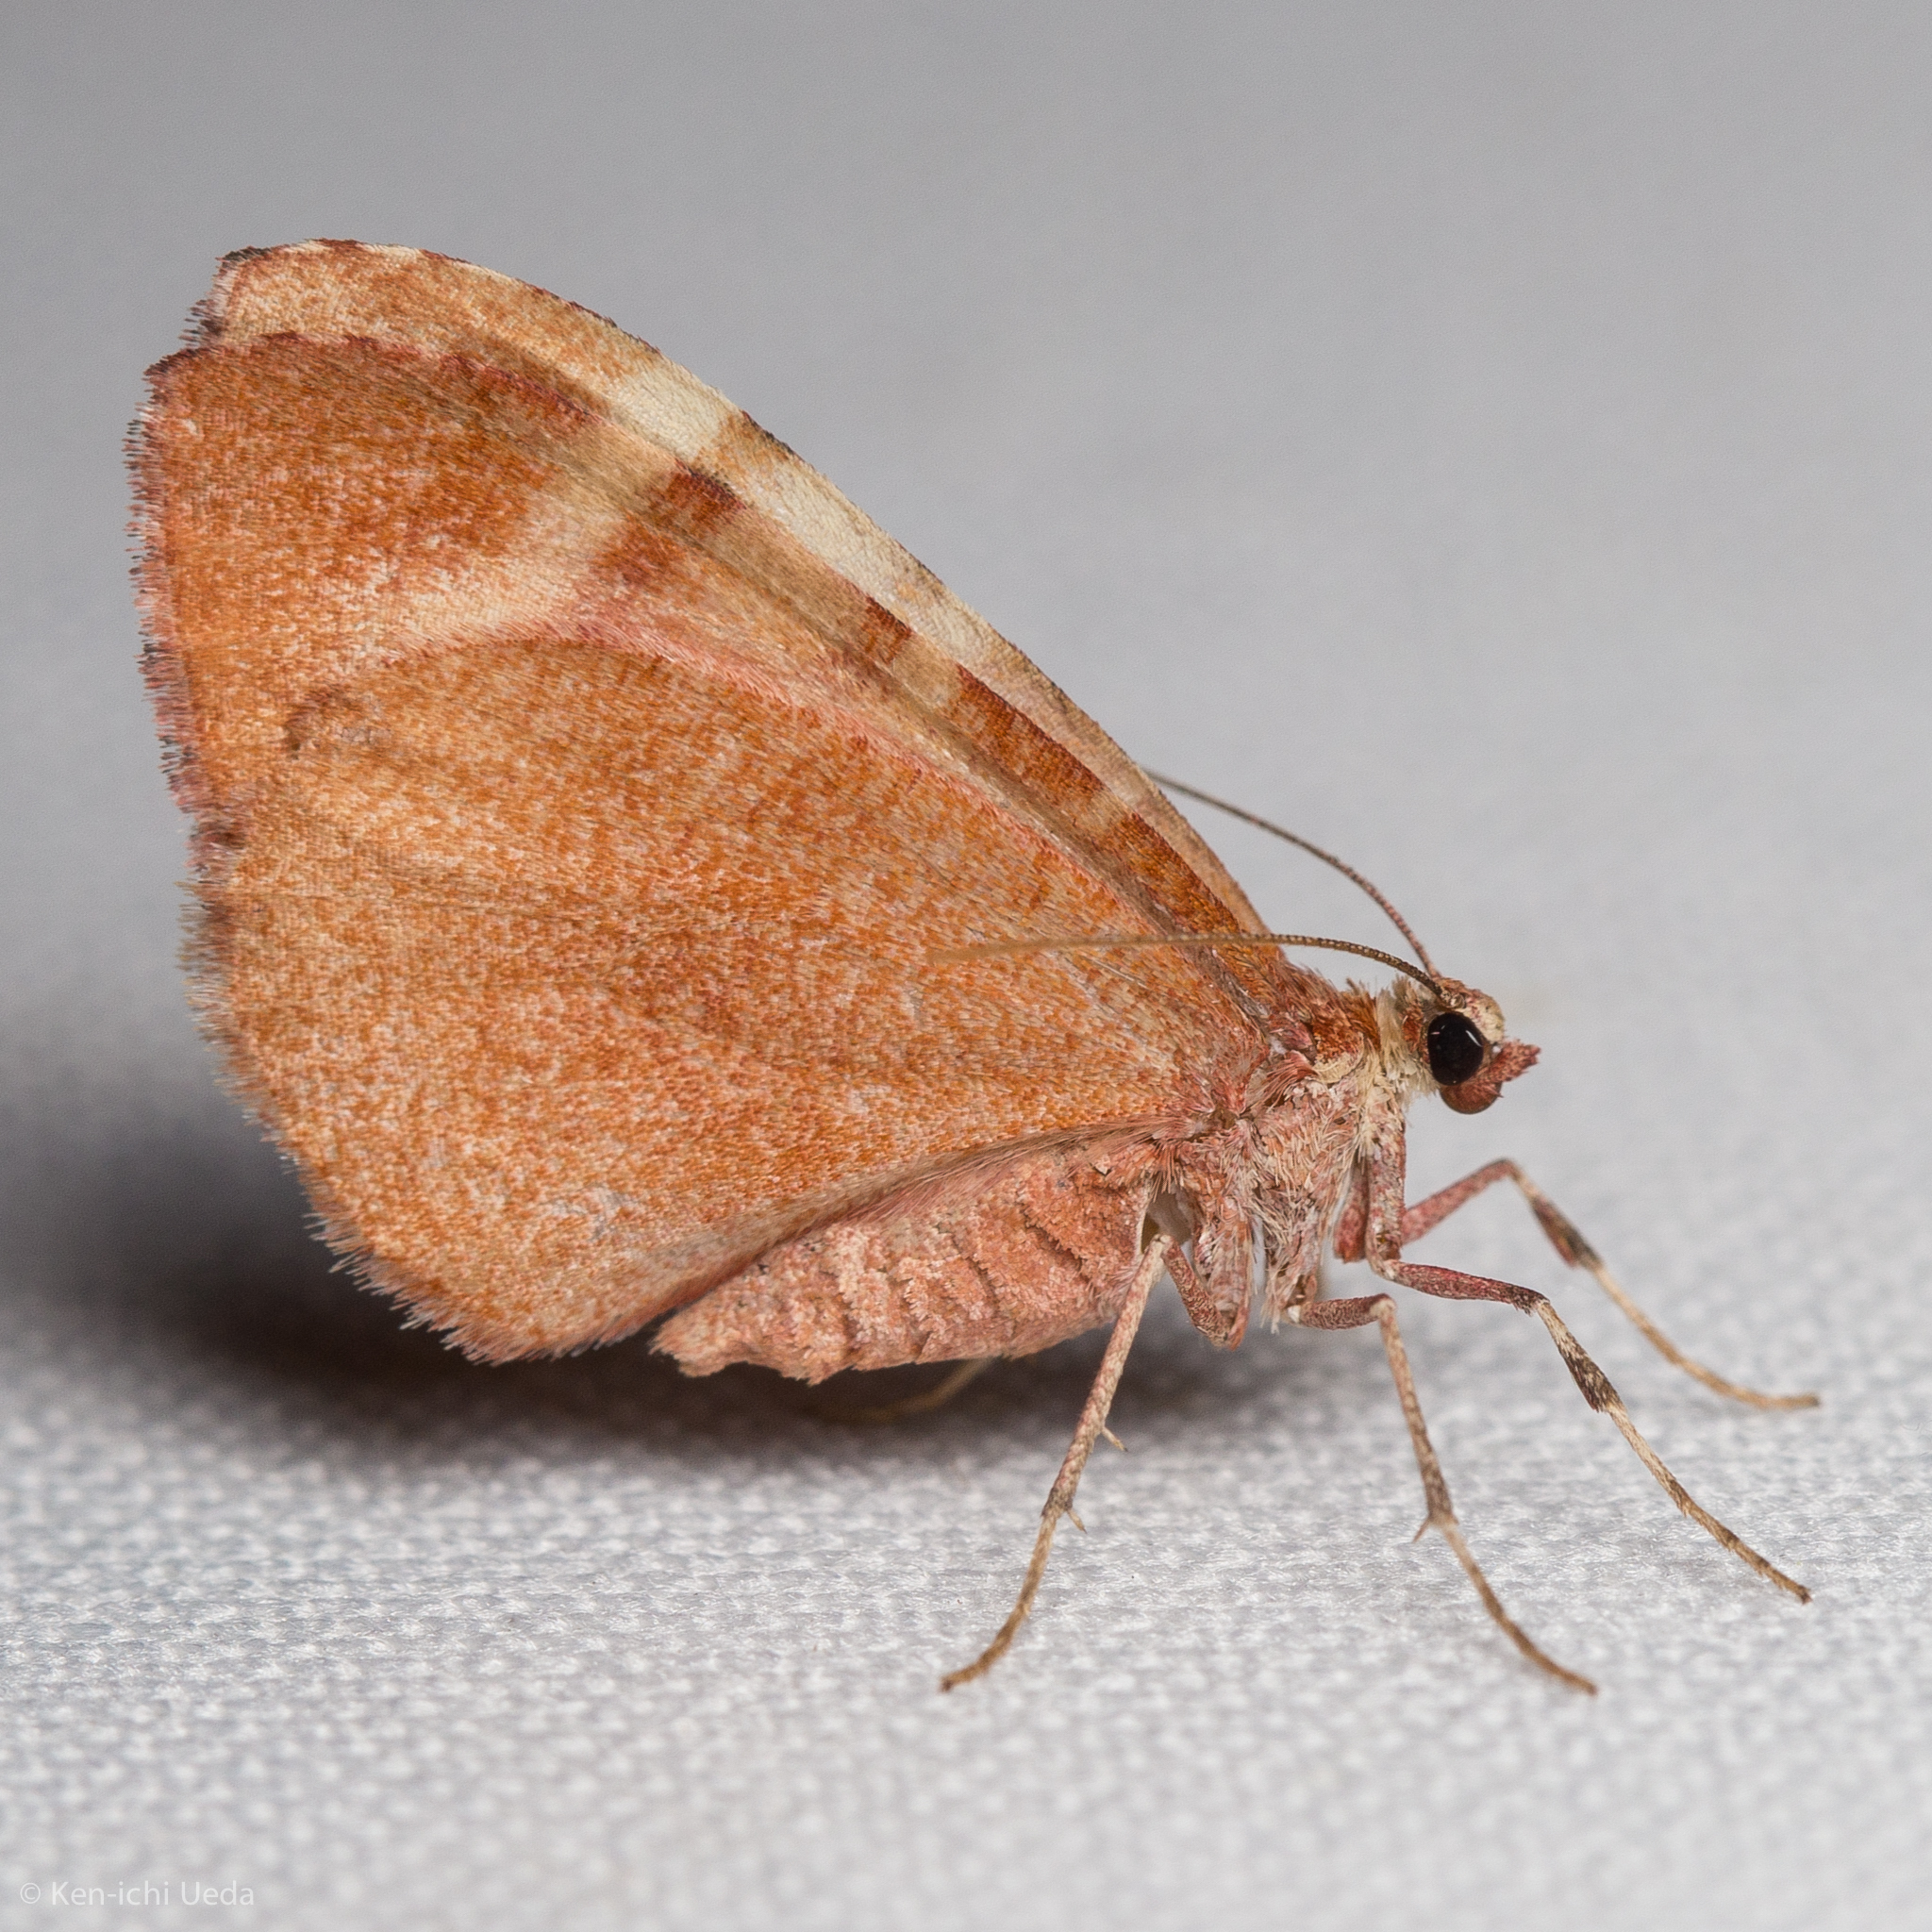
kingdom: Animalia
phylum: Arthropoda
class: Insecta
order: Lepidoptera
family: Geometridae
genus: Stamnodes
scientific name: Stamnodes ululata
